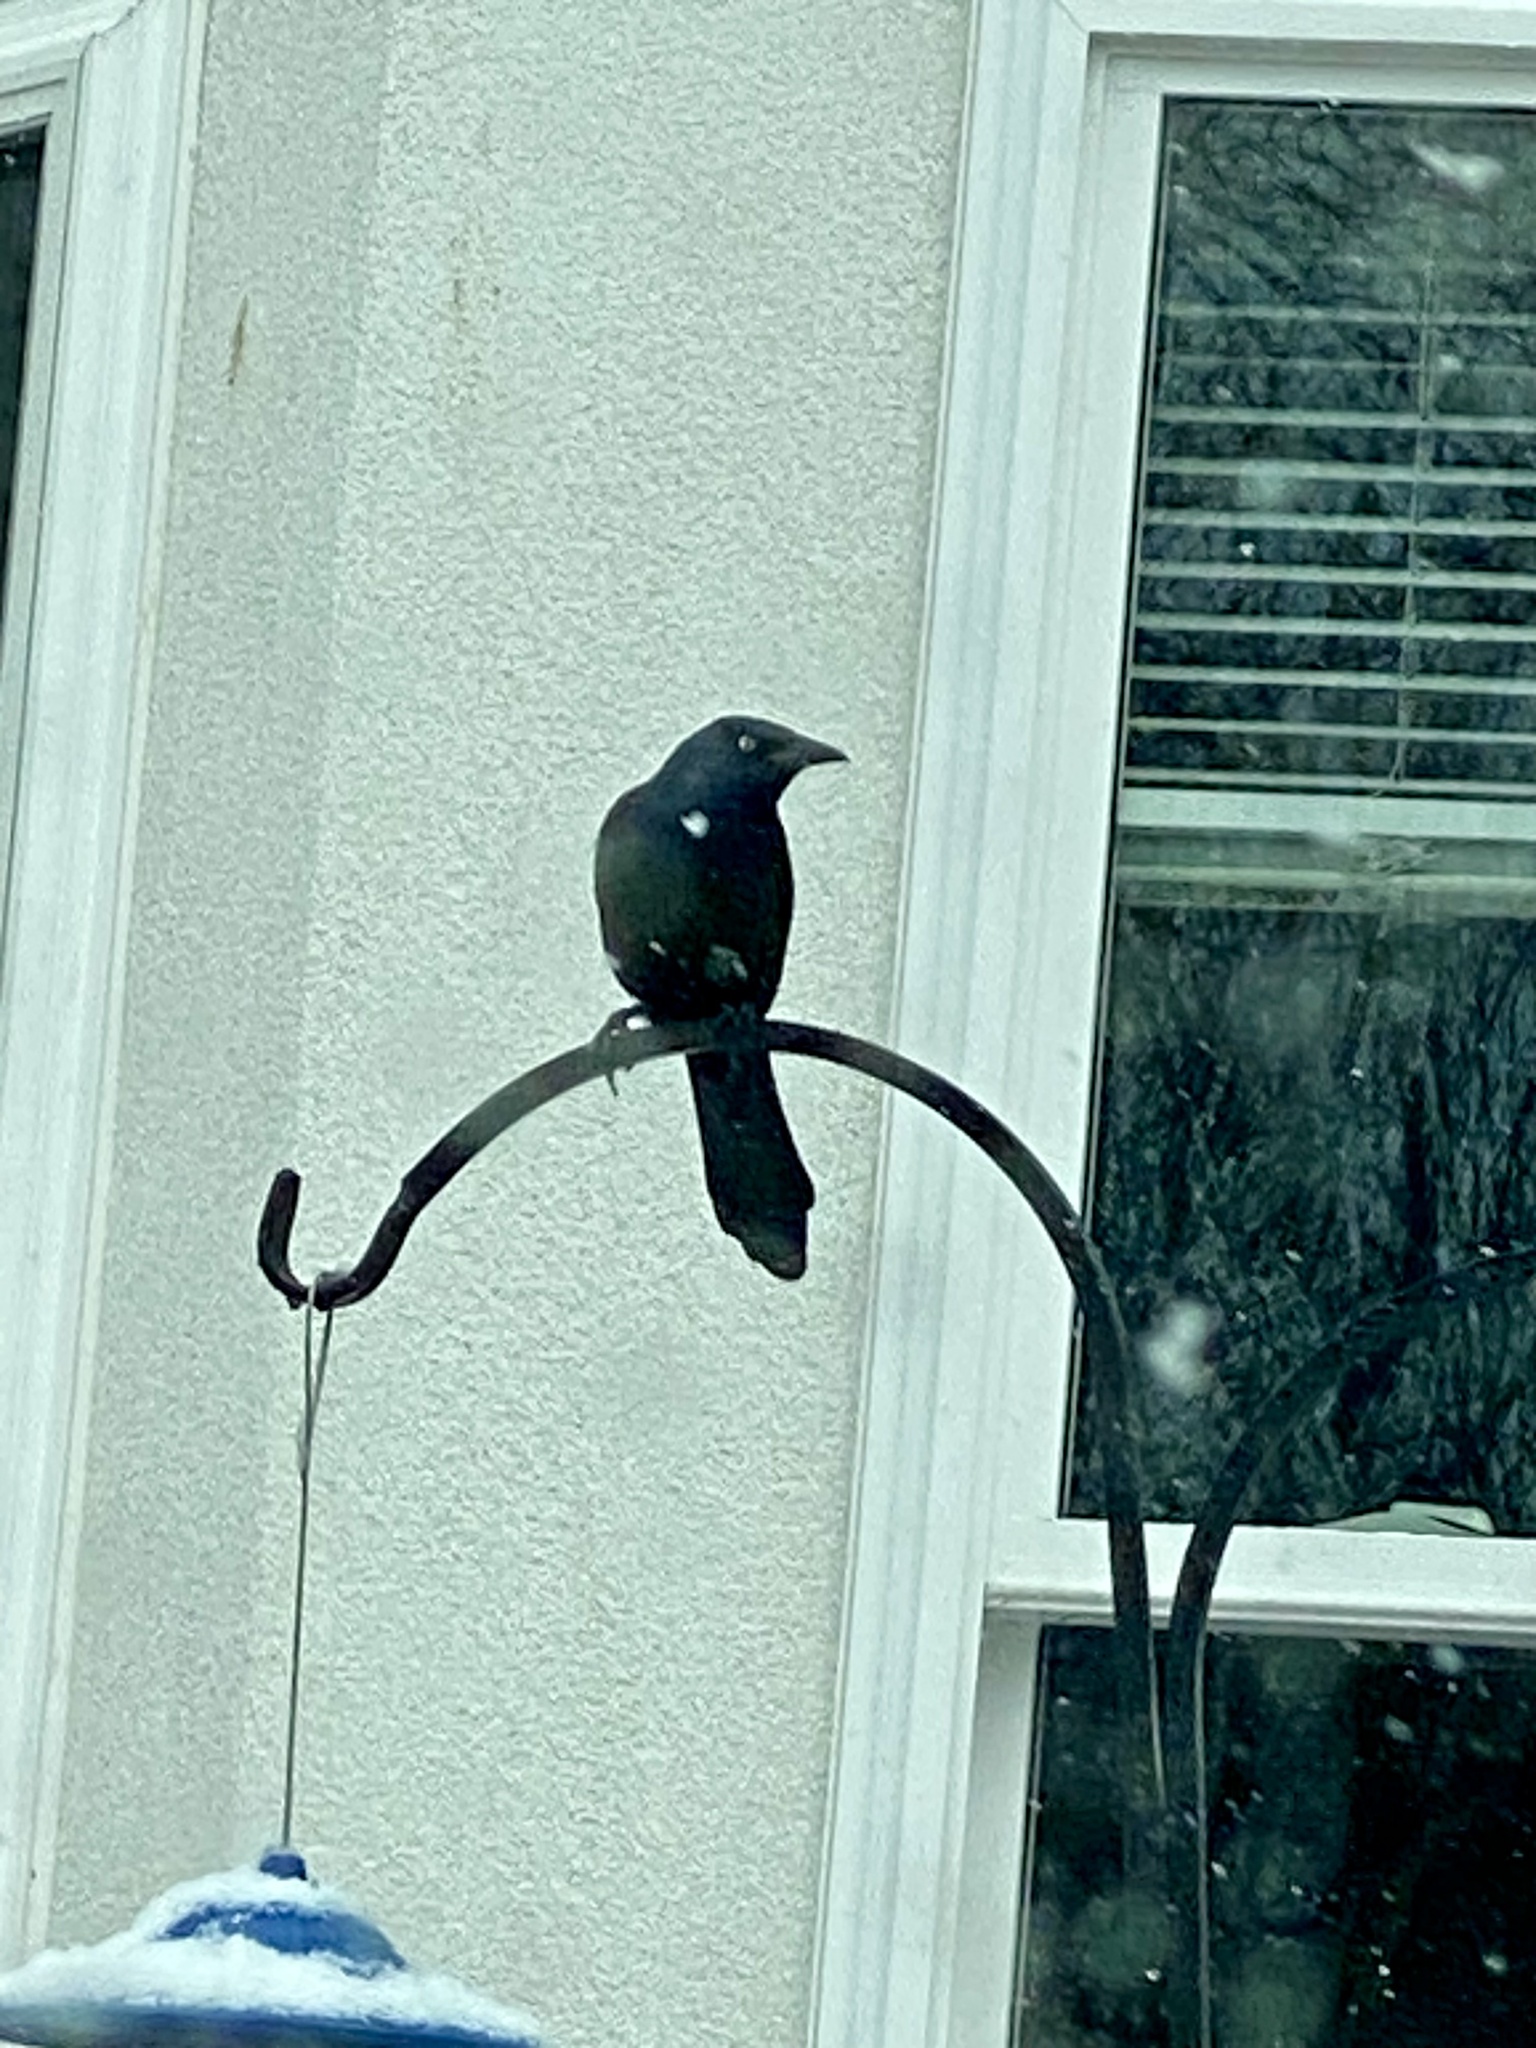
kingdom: Animalia
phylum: Chordata
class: Aves
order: Passeriformes
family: Icteridae
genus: Quiscalus
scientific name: Quiscalus quiscula
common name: Common grackle
